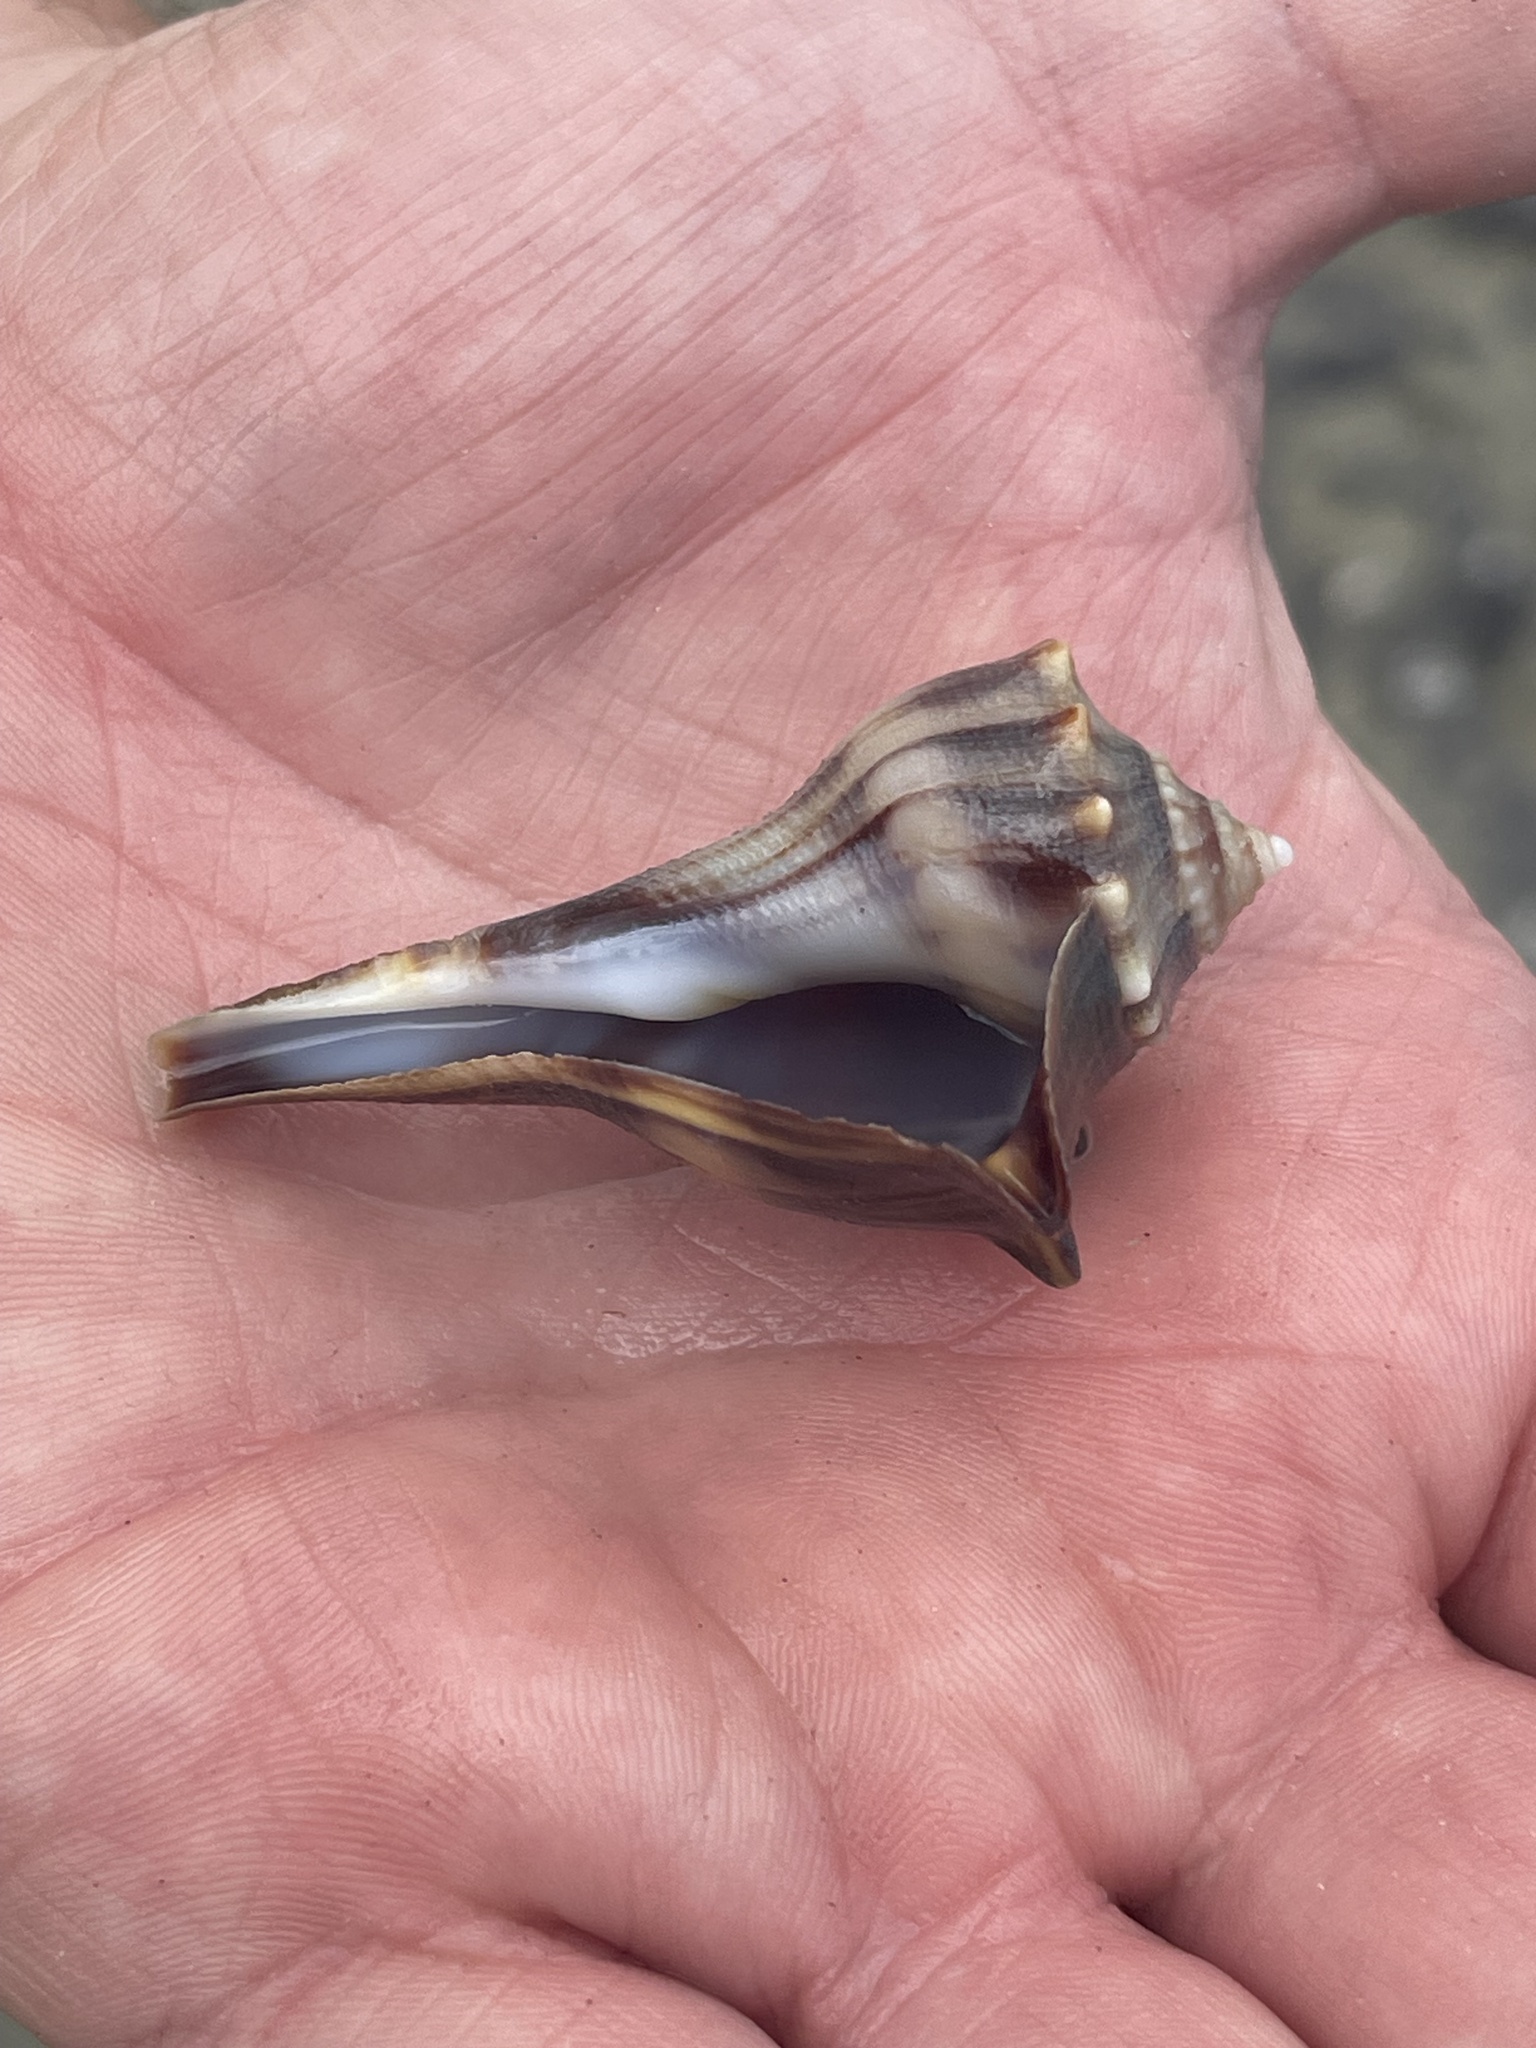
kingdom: Animalia
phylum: Mollusca
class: Gastropoda
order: Neogastropoda
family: Busyconidae
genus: Busycon
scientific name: Busycon carica
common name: Knobbed whelk
